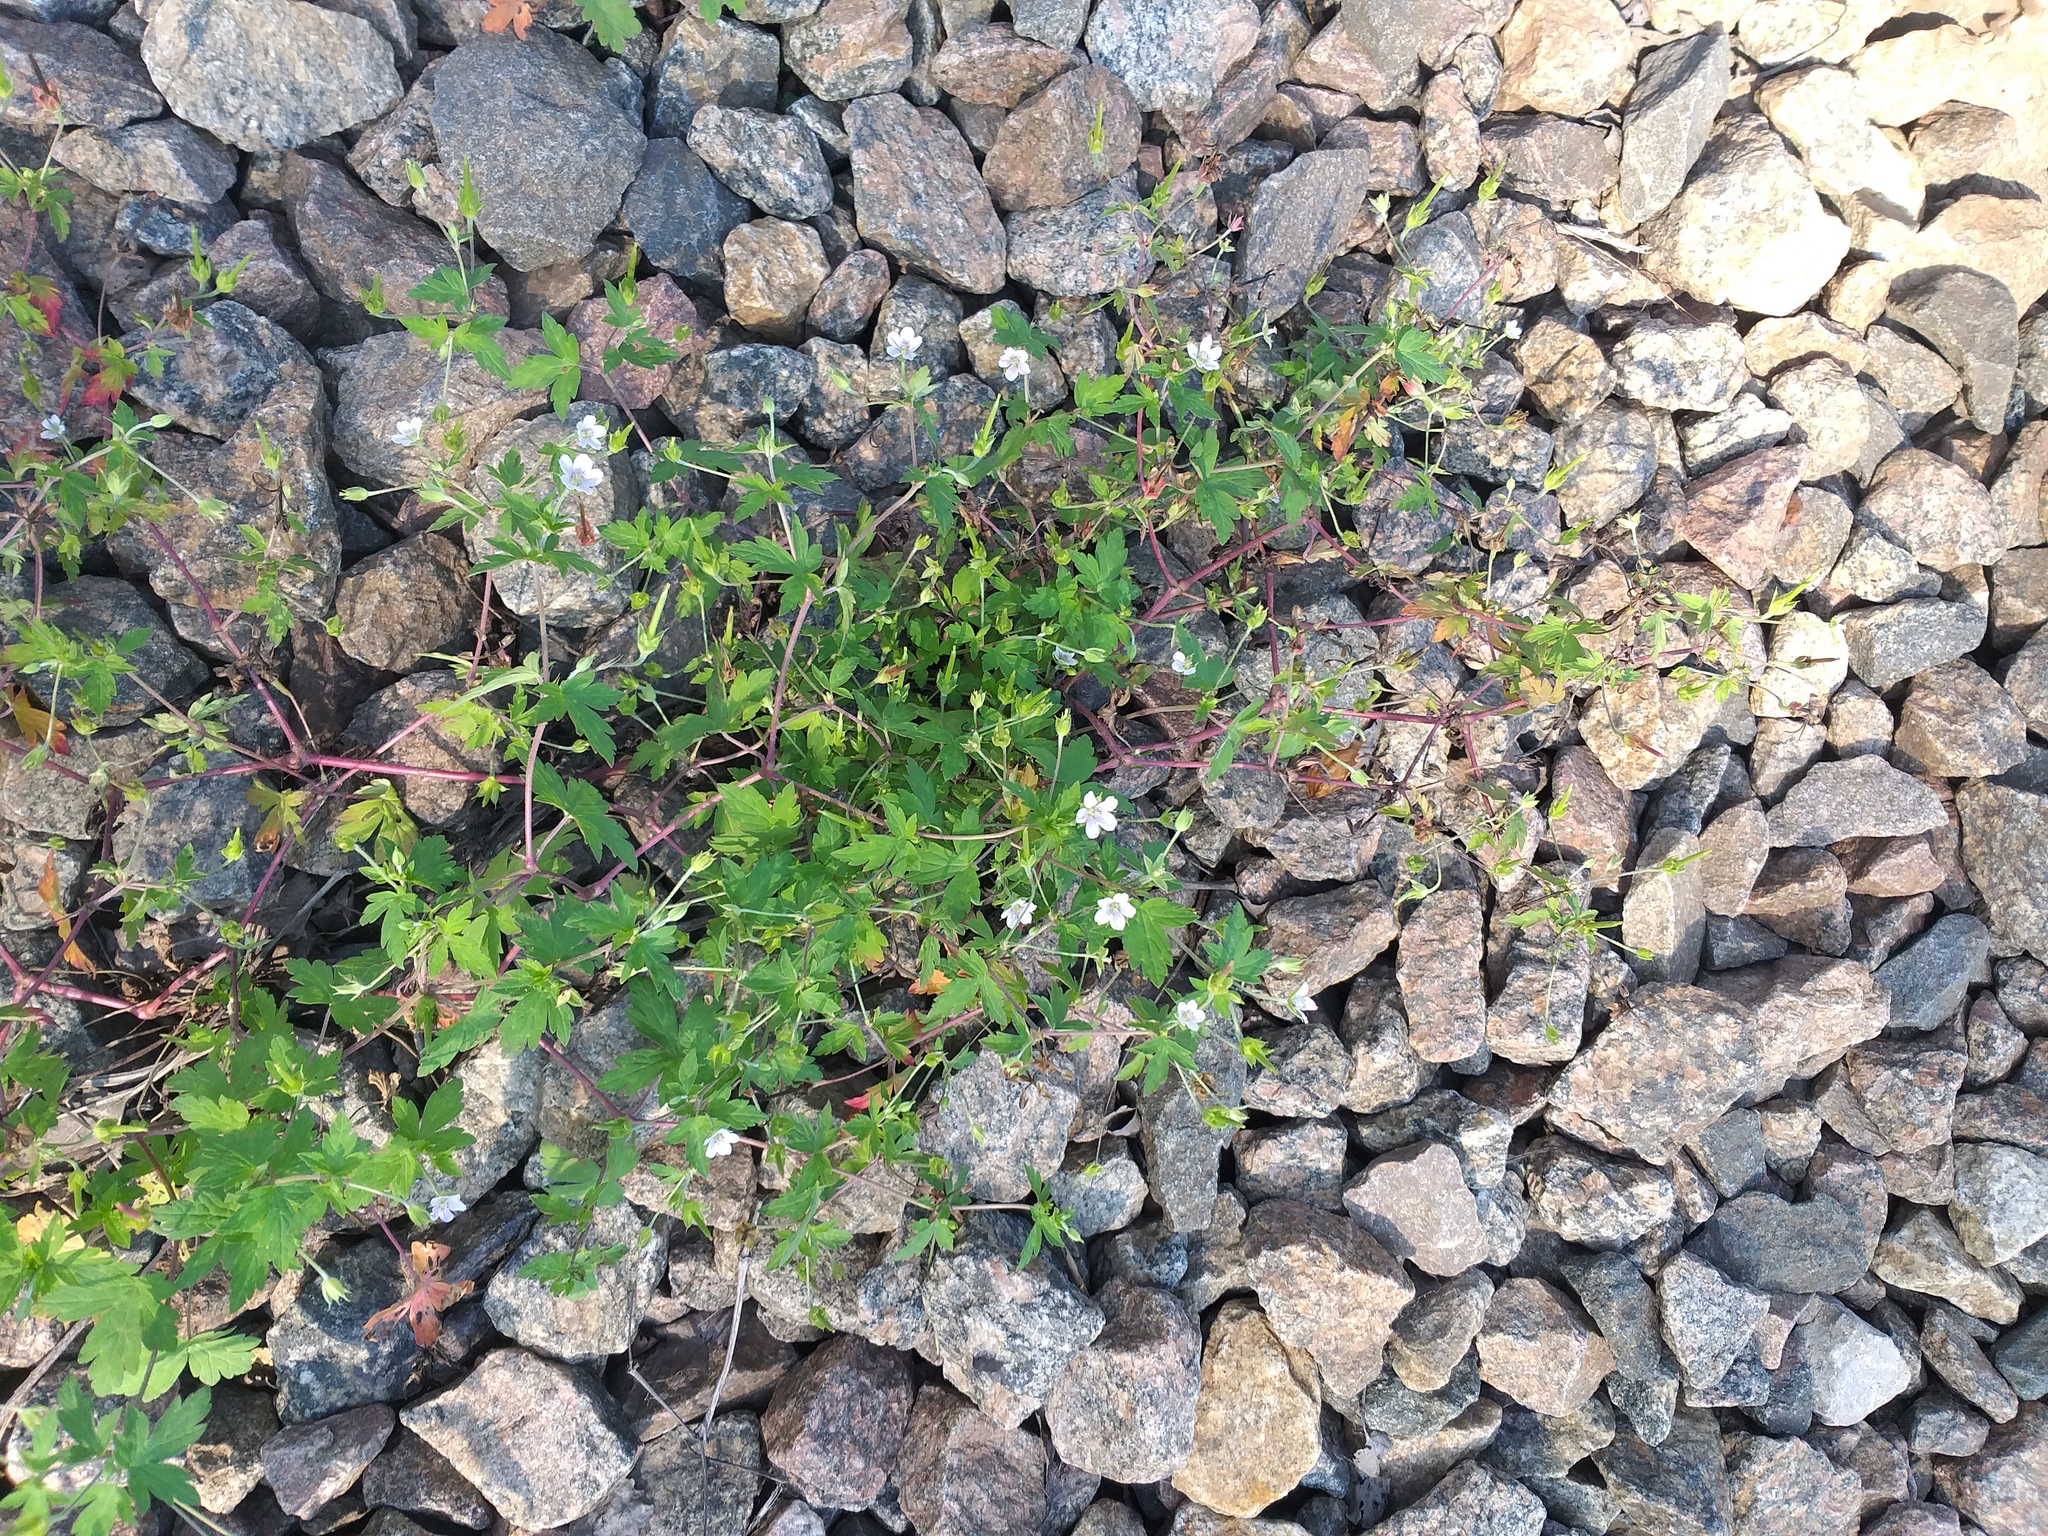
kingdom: Plantae
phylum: Tracheophyta
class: Magnoliopsida
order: Geraniales
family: Geraniaceae
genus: Geranium
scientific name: Geranium sibiricum
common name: Siberian crane's-bill
